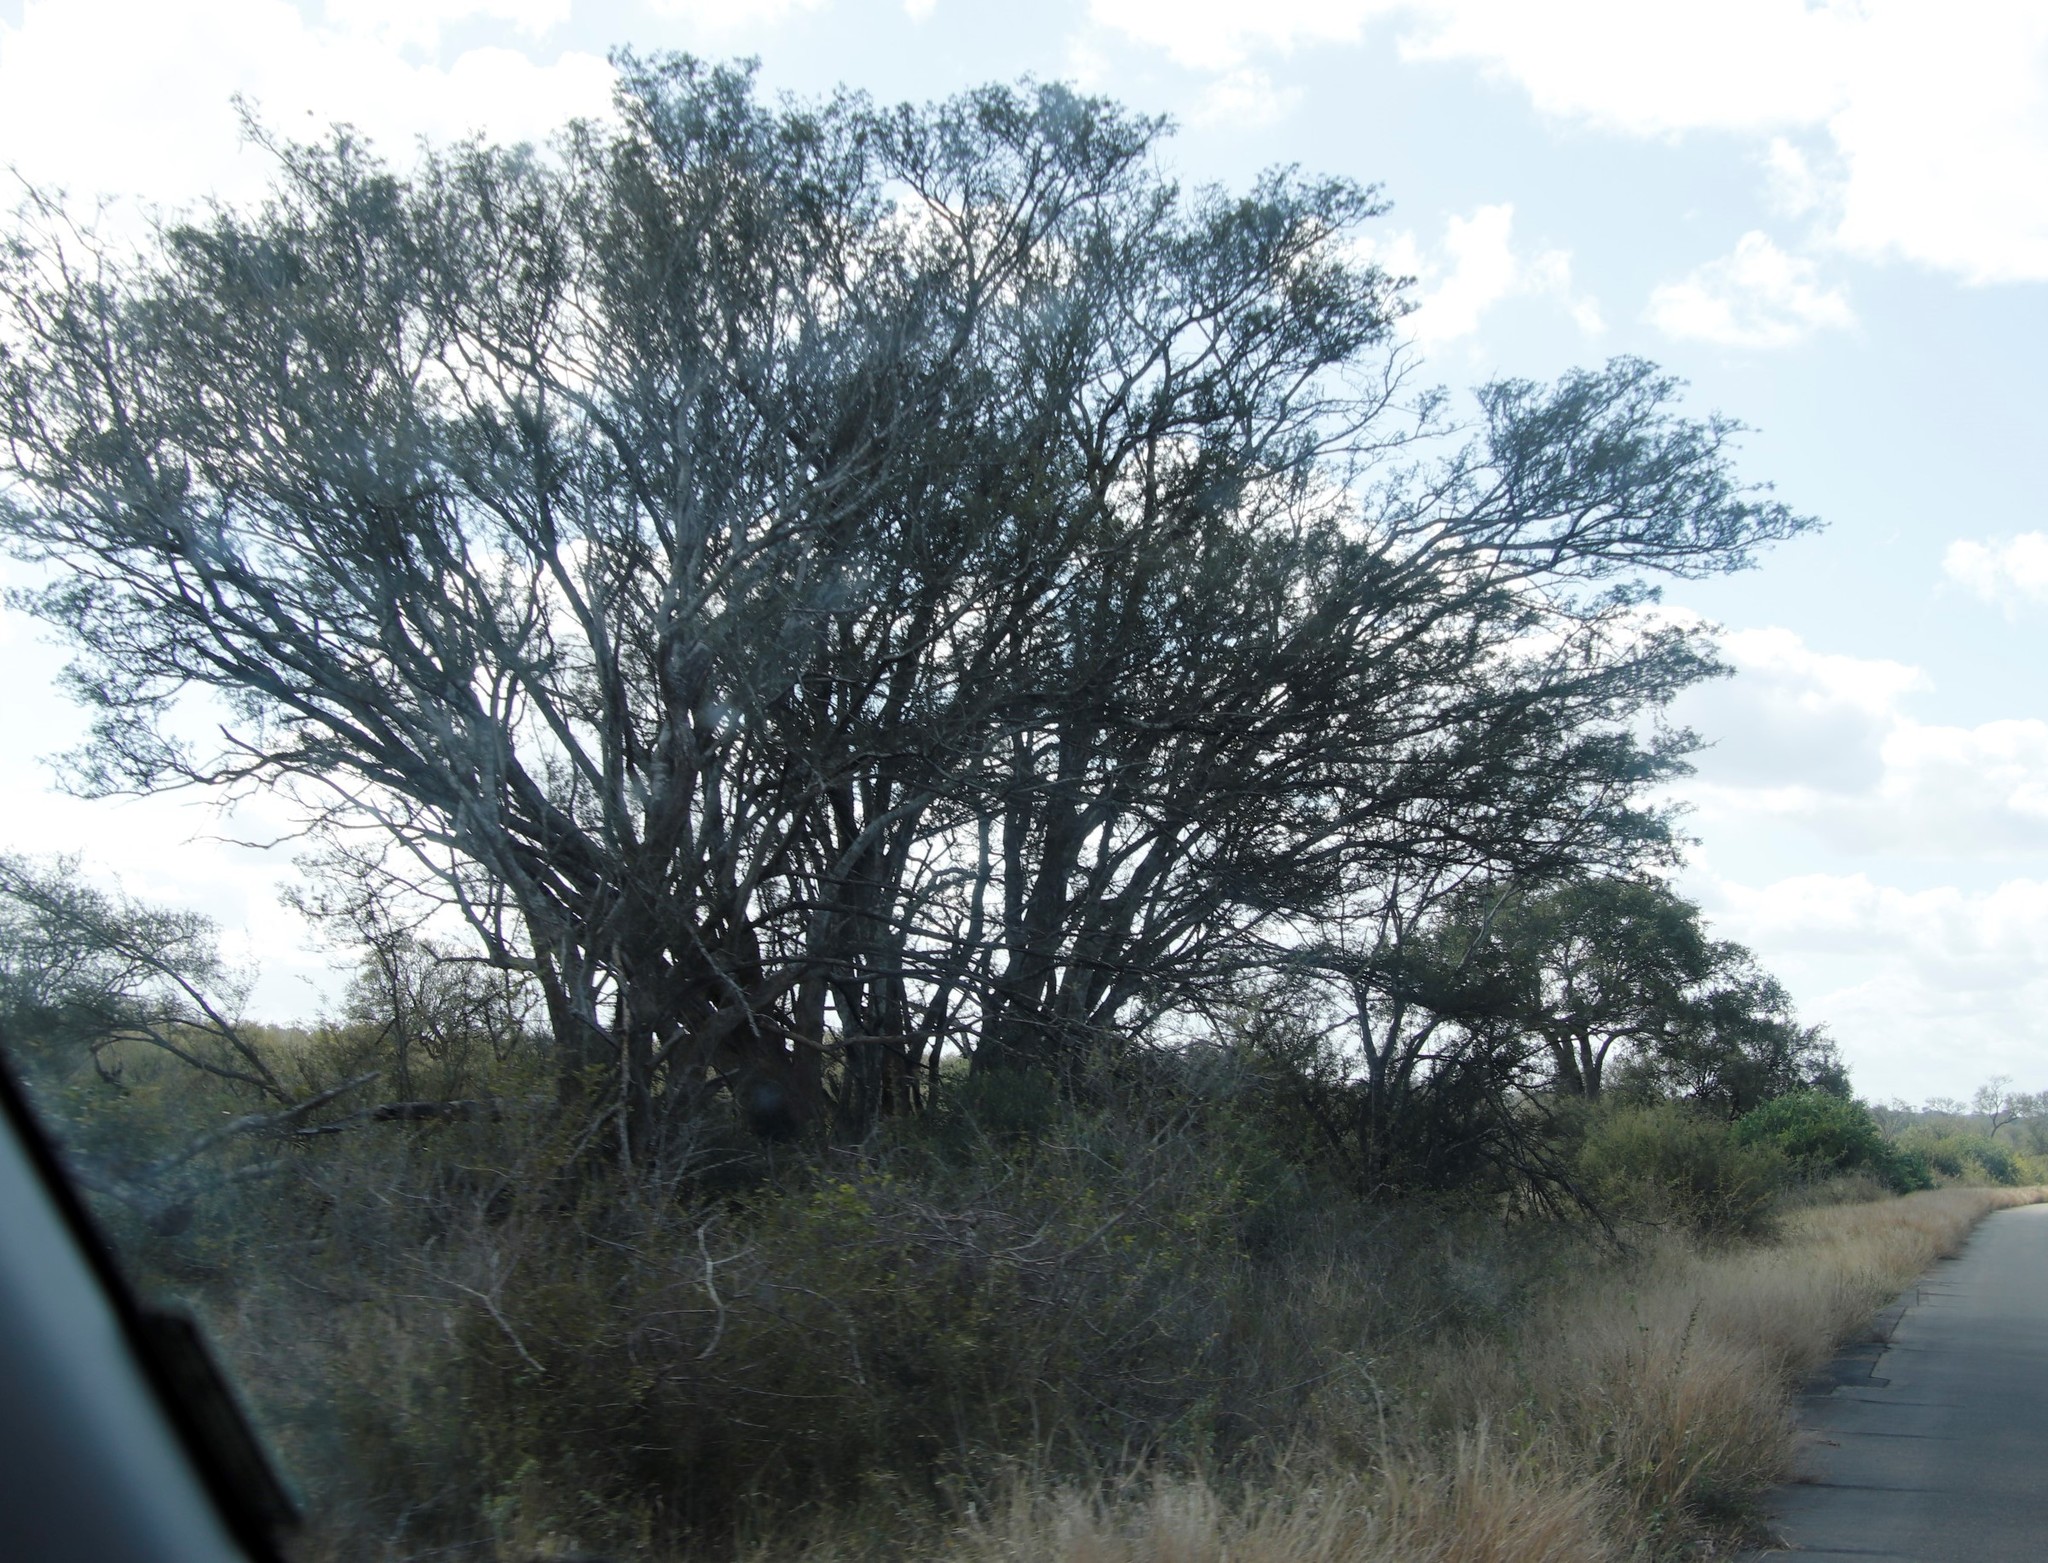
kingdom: Plantae
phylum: Tracheophyta
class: Magnoliopsida
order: Fabales
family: Fabaceae
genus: Albizia
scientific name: Albizia petersiana
